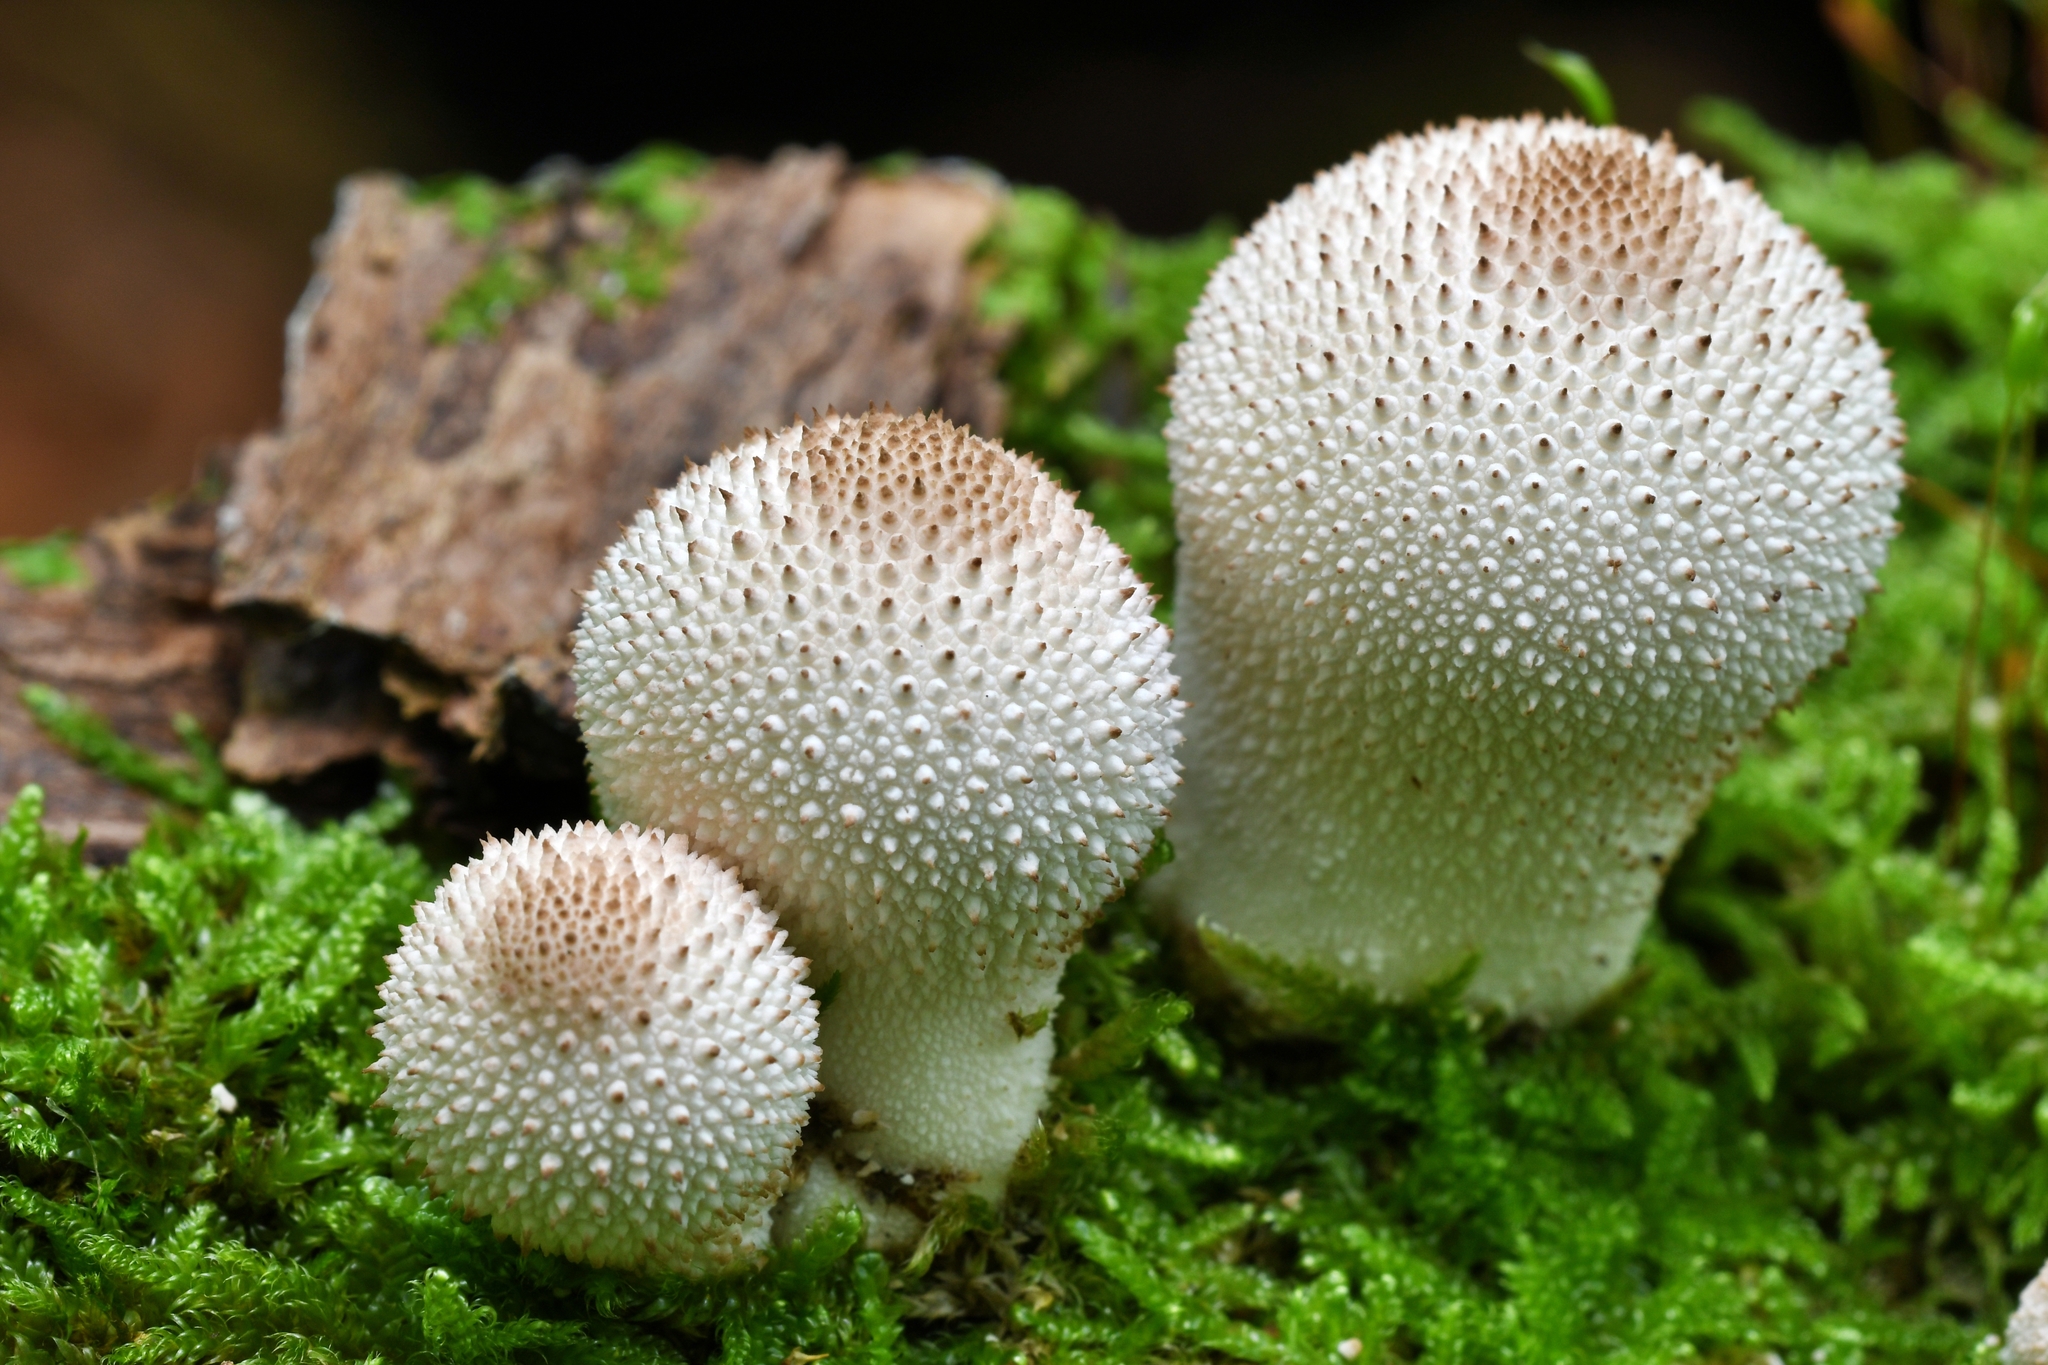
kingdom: Fungi
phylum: Basidiomycota
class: Agaricomycetes
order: Agaricales
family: Lycoperdaceae
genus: Lycoperdon
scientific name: Lycoperdon perlatum
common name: Common puffball
